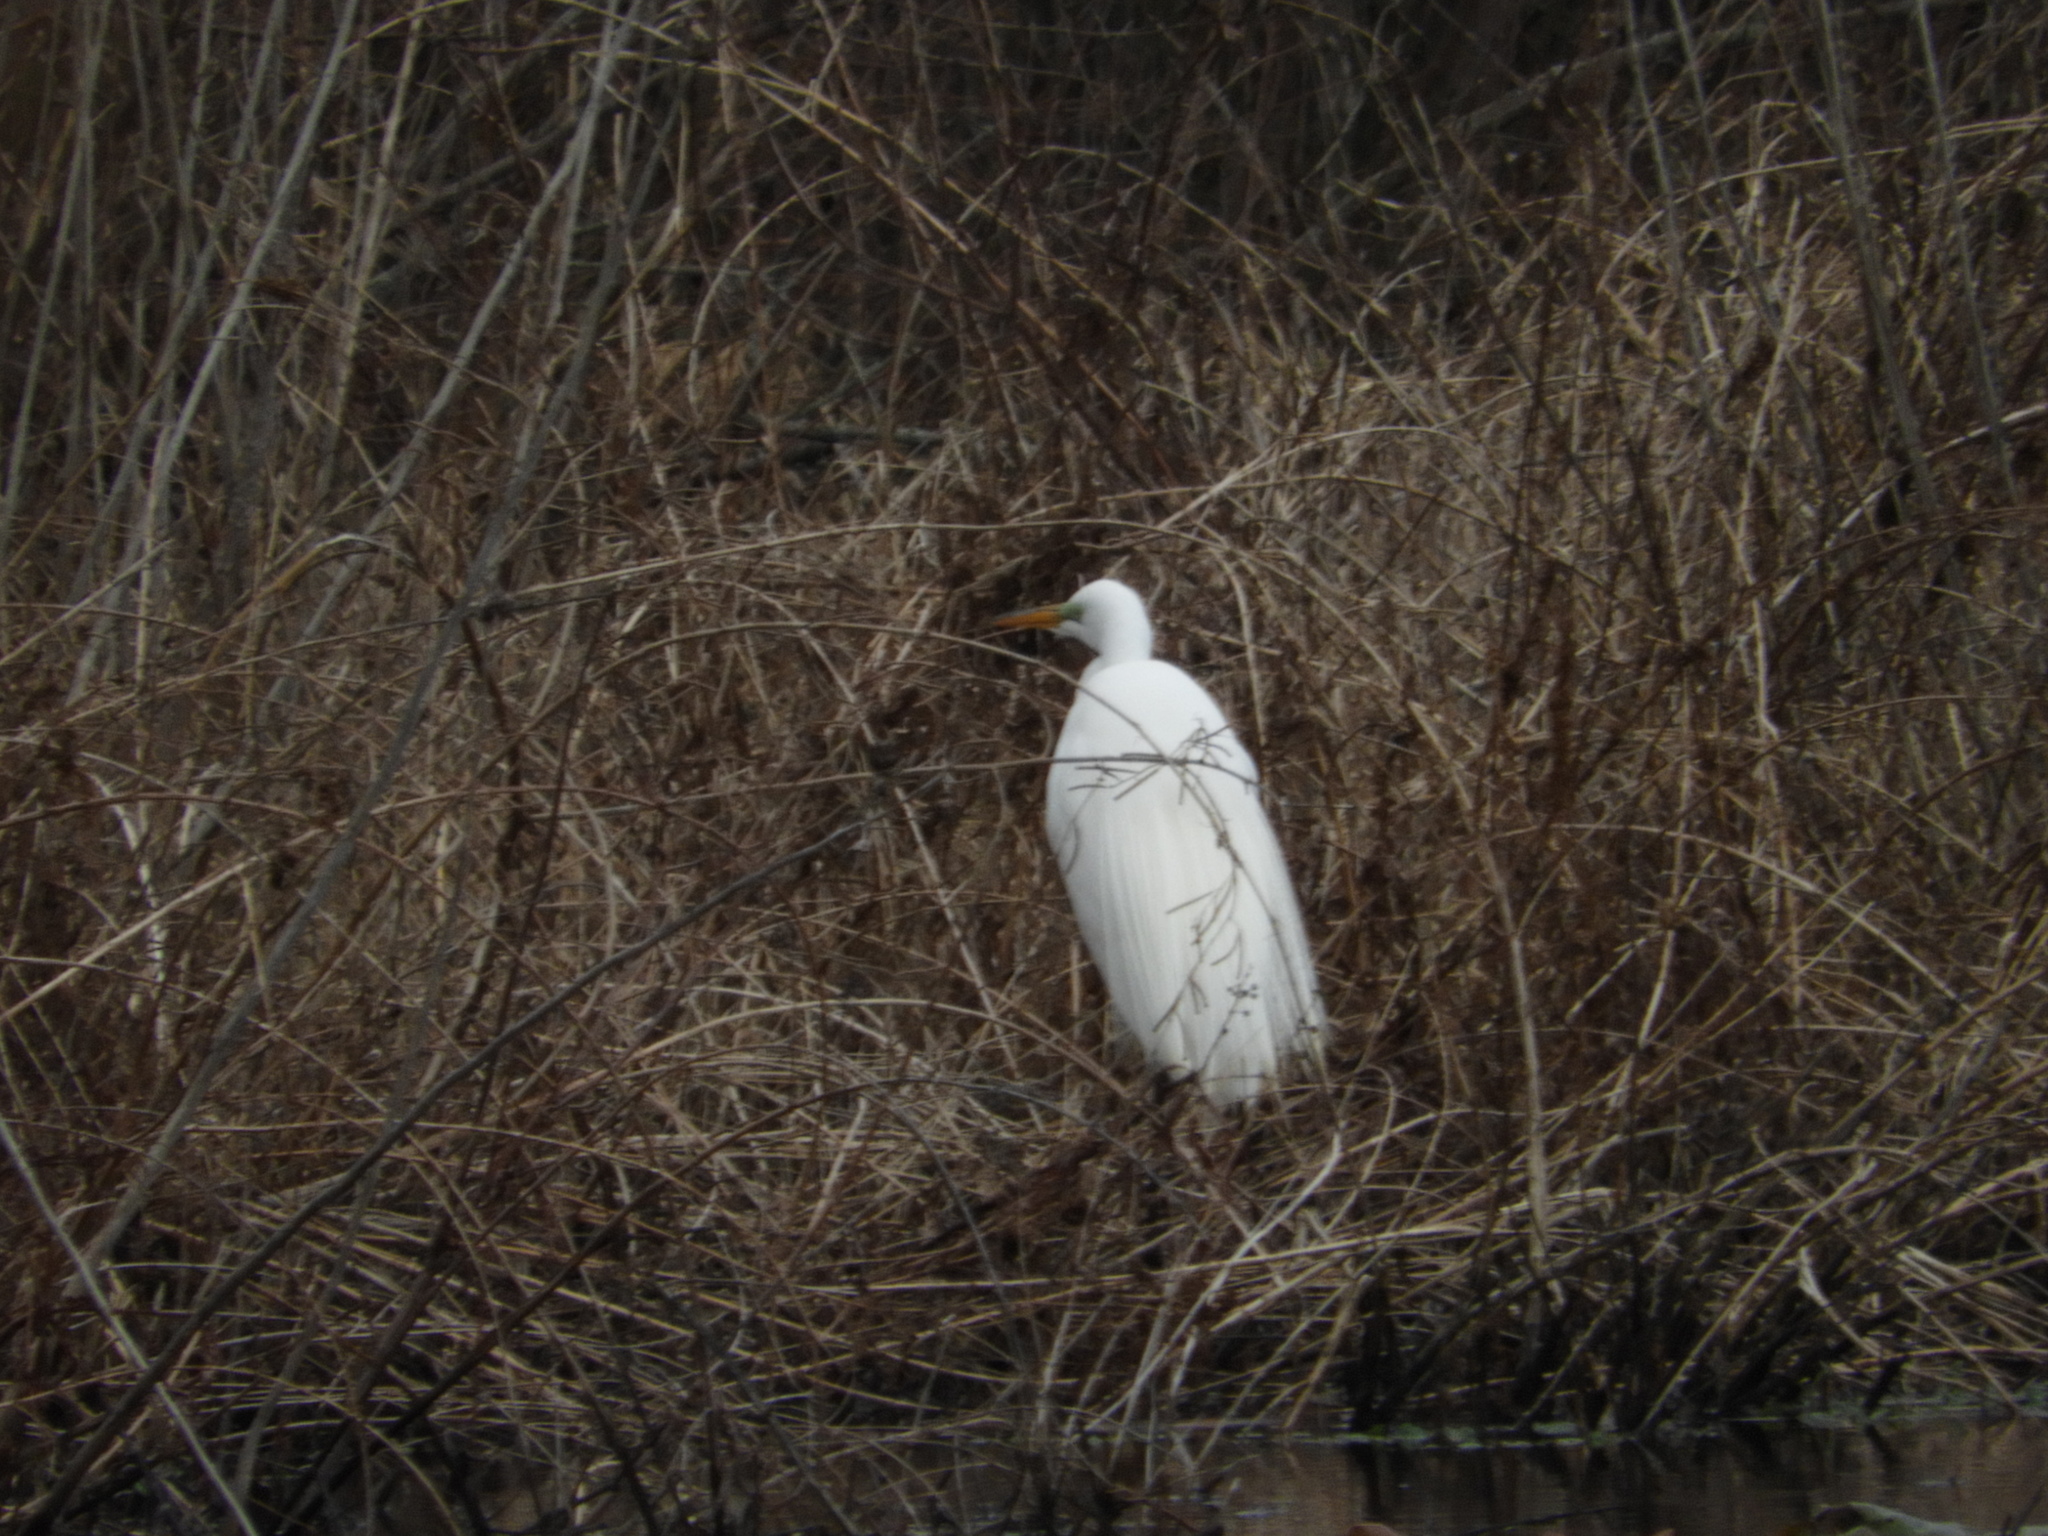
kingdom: Animalia
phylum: Chordata
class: Aves
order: Pelecaniformes
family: Ardeidae
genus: Ardea
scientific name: Ardea alba
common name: Great egret
